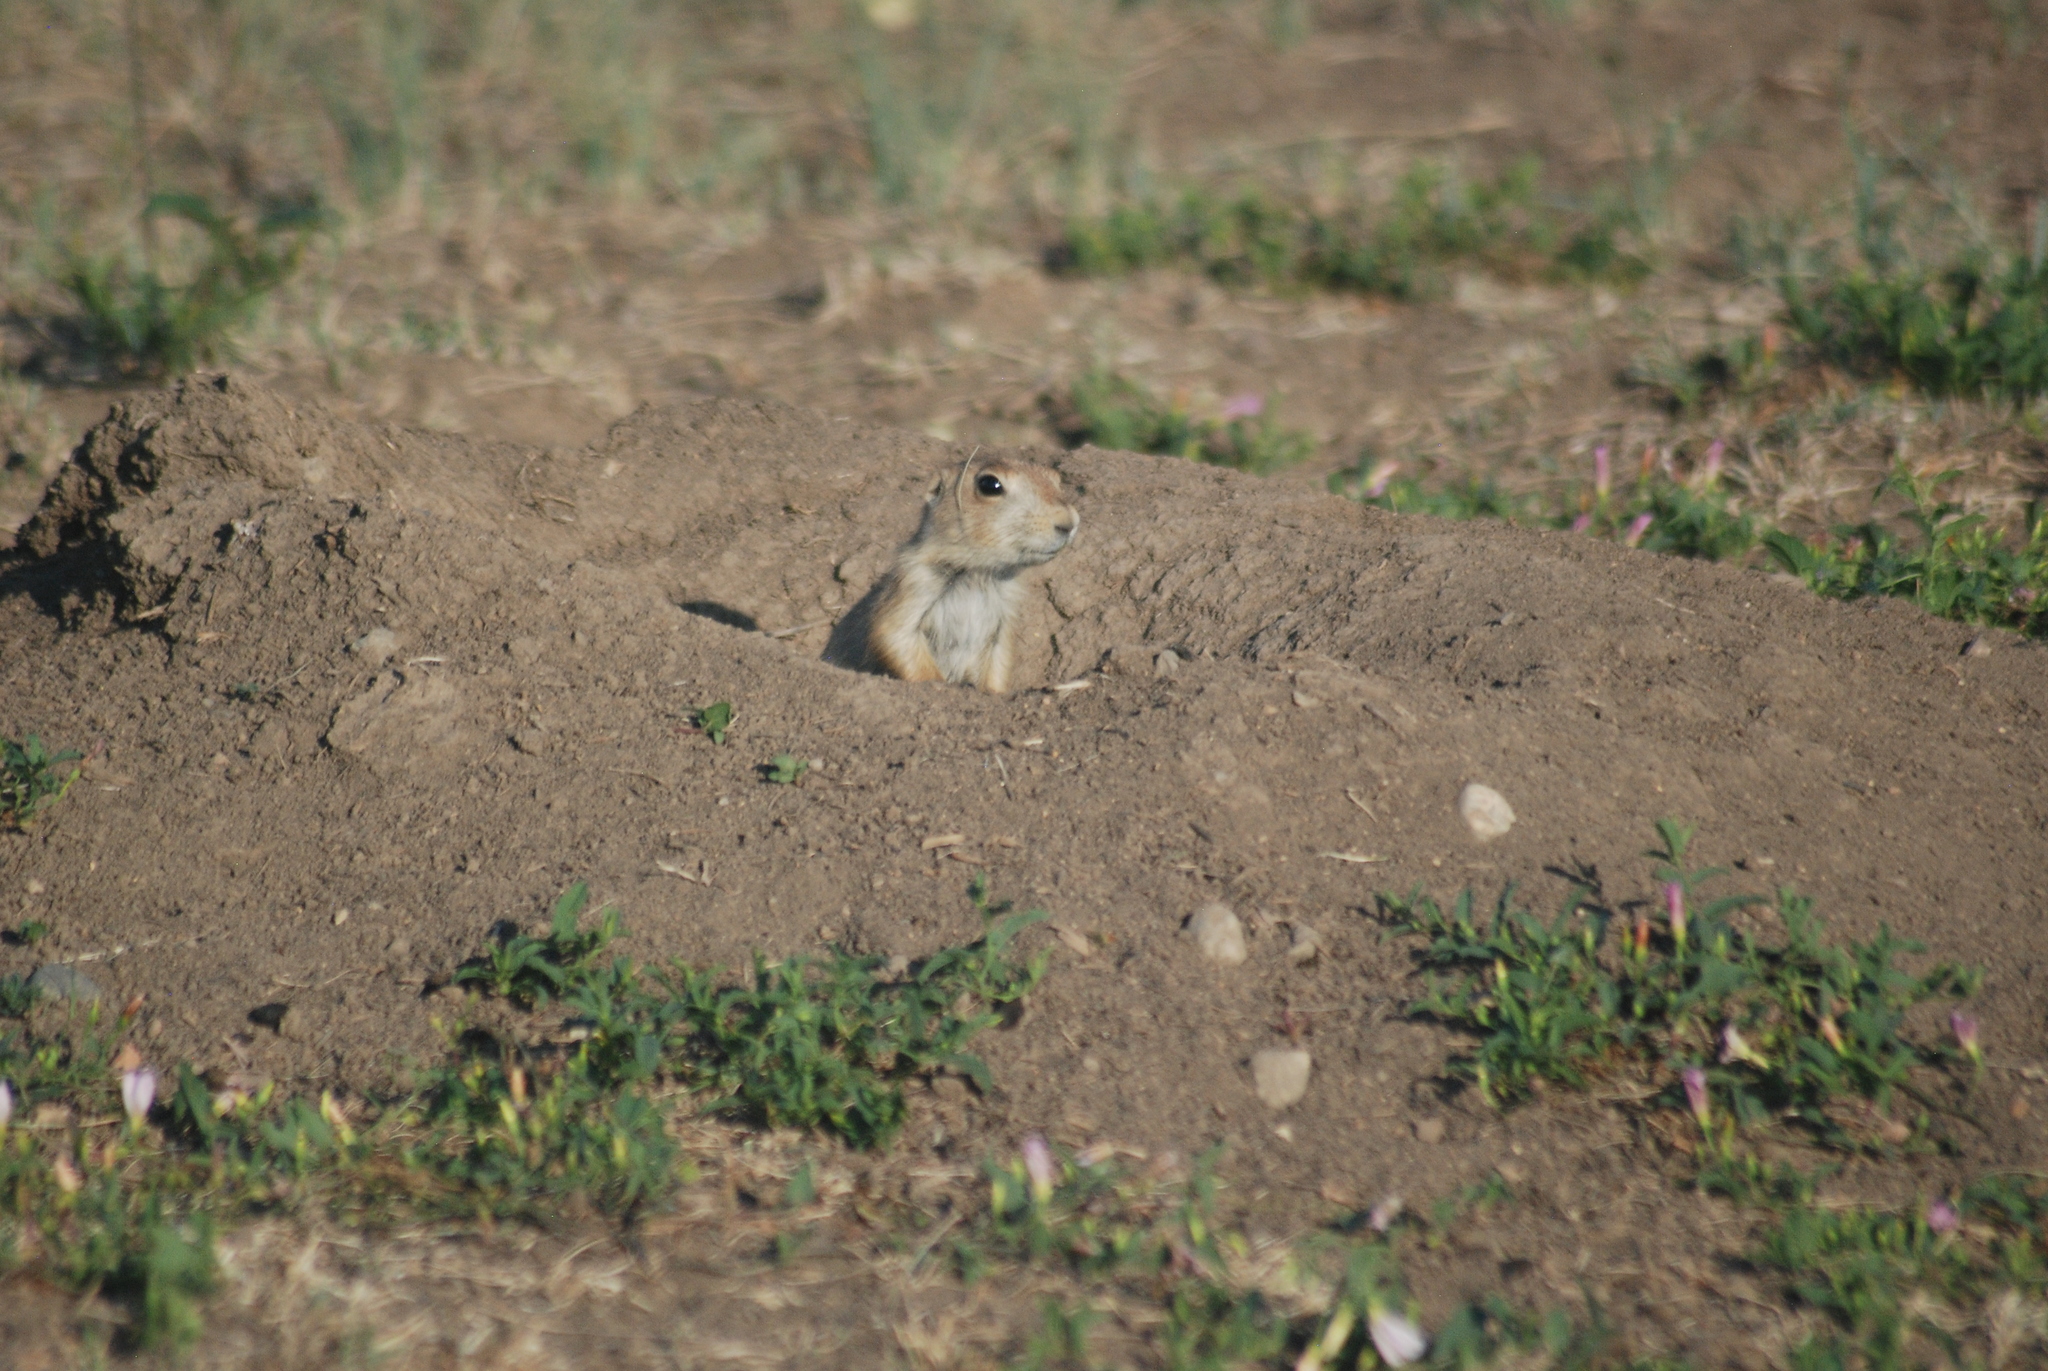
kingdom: Animalia
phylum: Chordata
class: Mammalia
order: Rodentia
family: Sciuridae
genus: Cynomys
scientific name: Cynomys ludovicianus
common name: Black-tailed prairie dog
